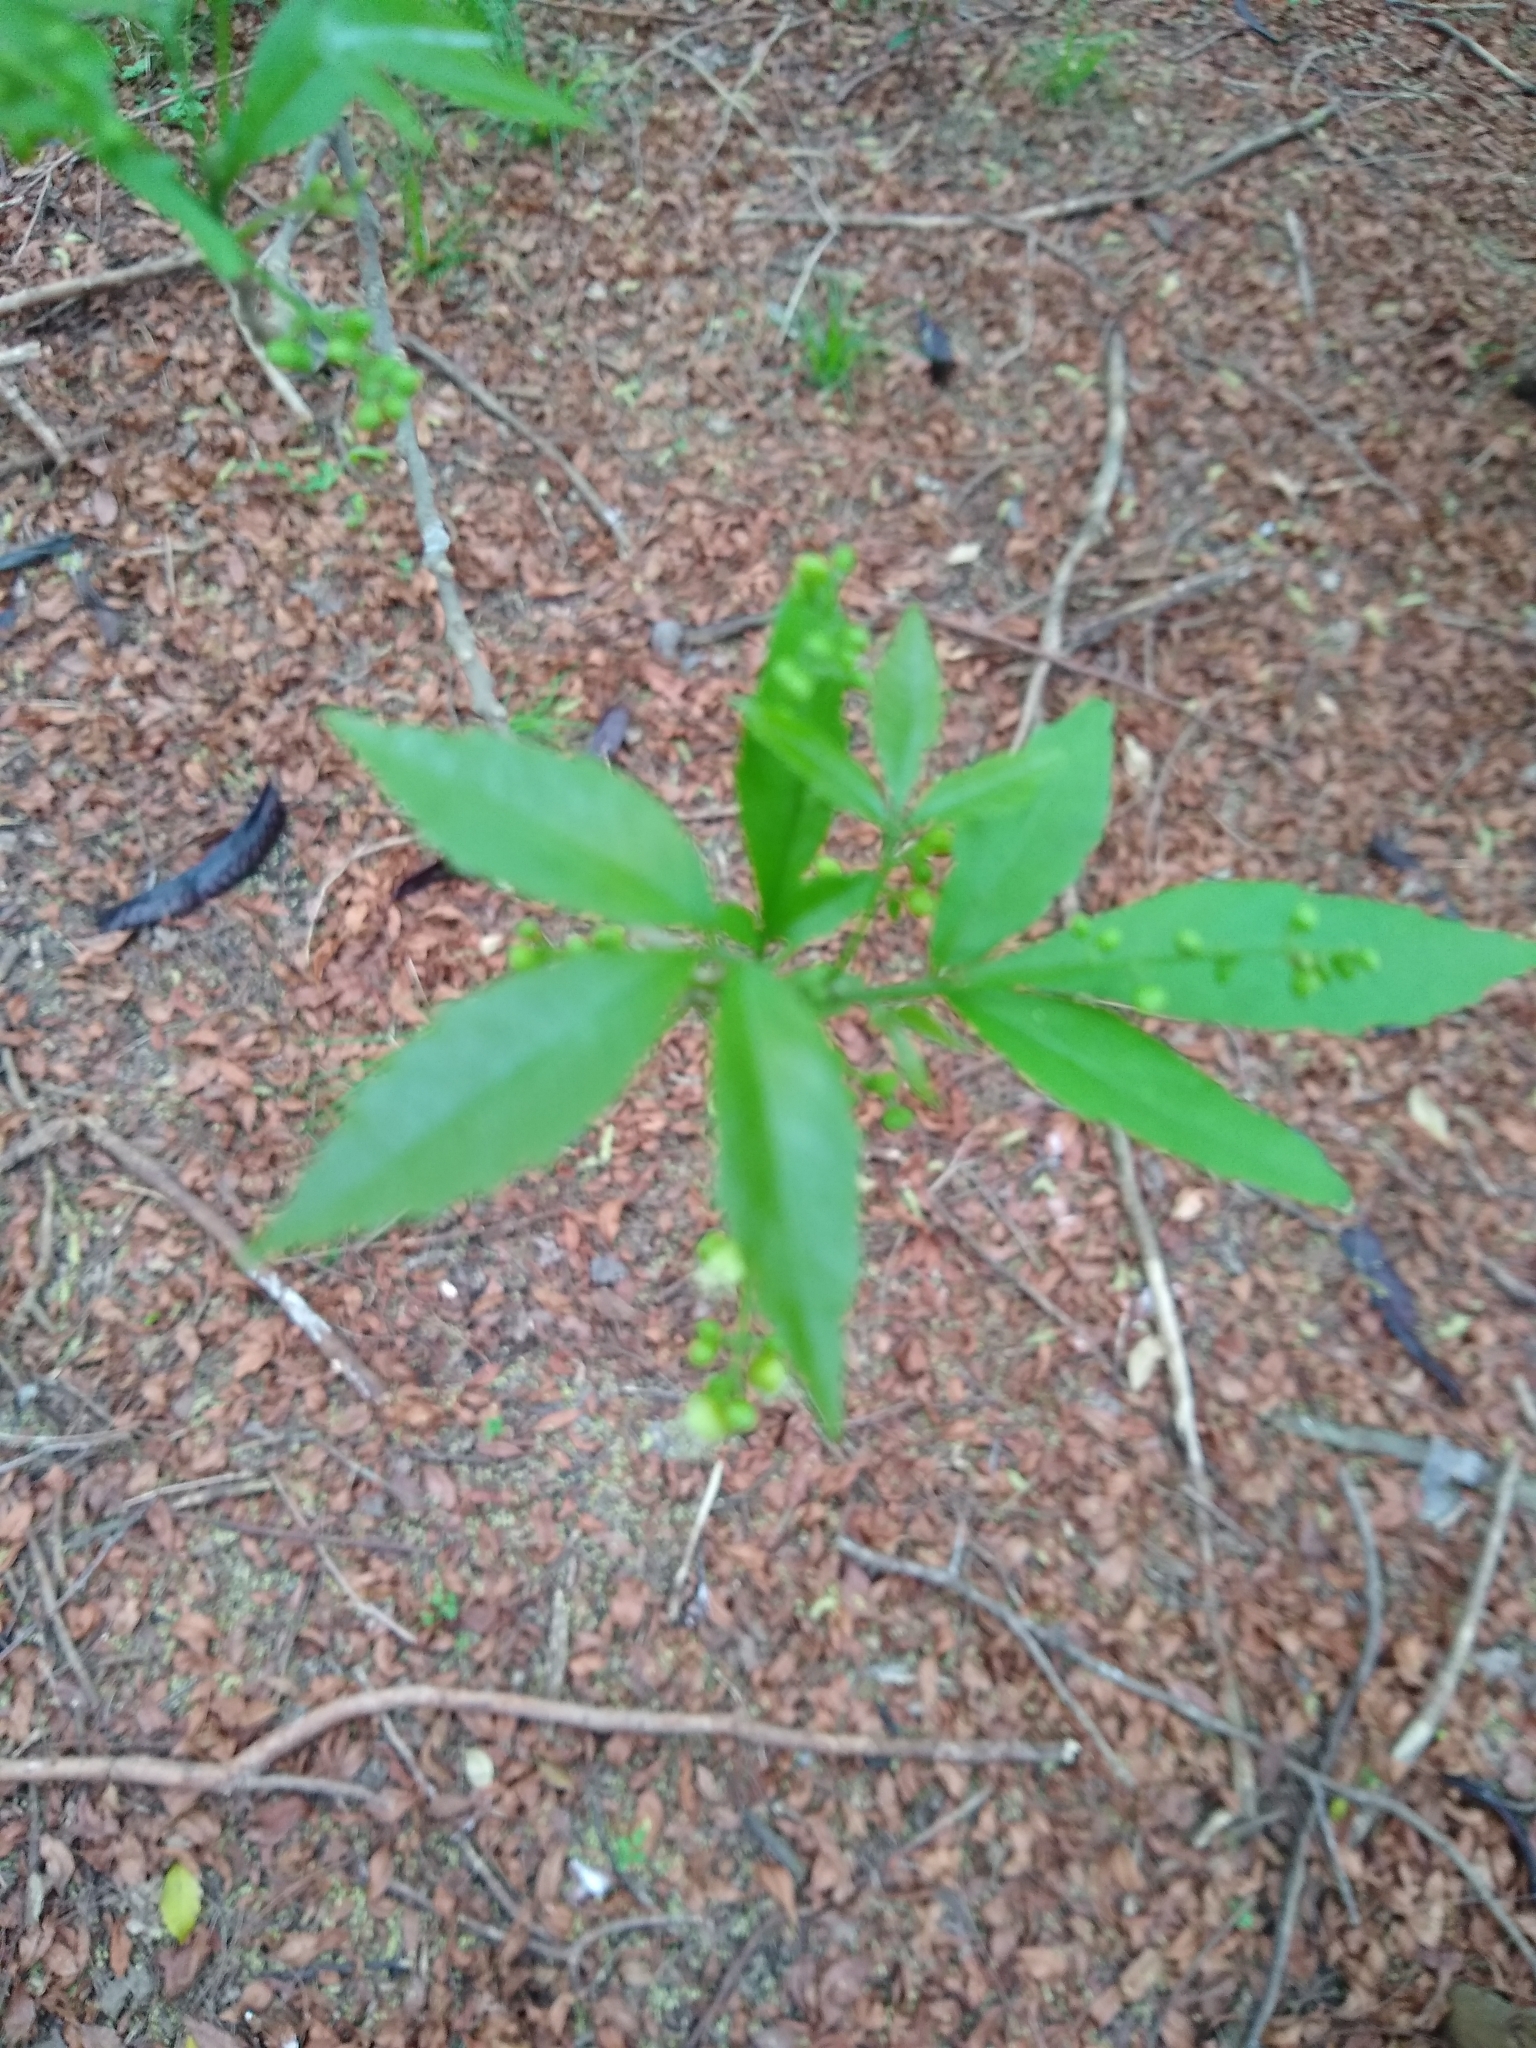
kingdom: Plantae
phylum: Tracheophyta
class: Magnoliopsida
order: Sapindales
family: Sapindaceae
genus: Allophylus
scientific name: Allophylus edulis
